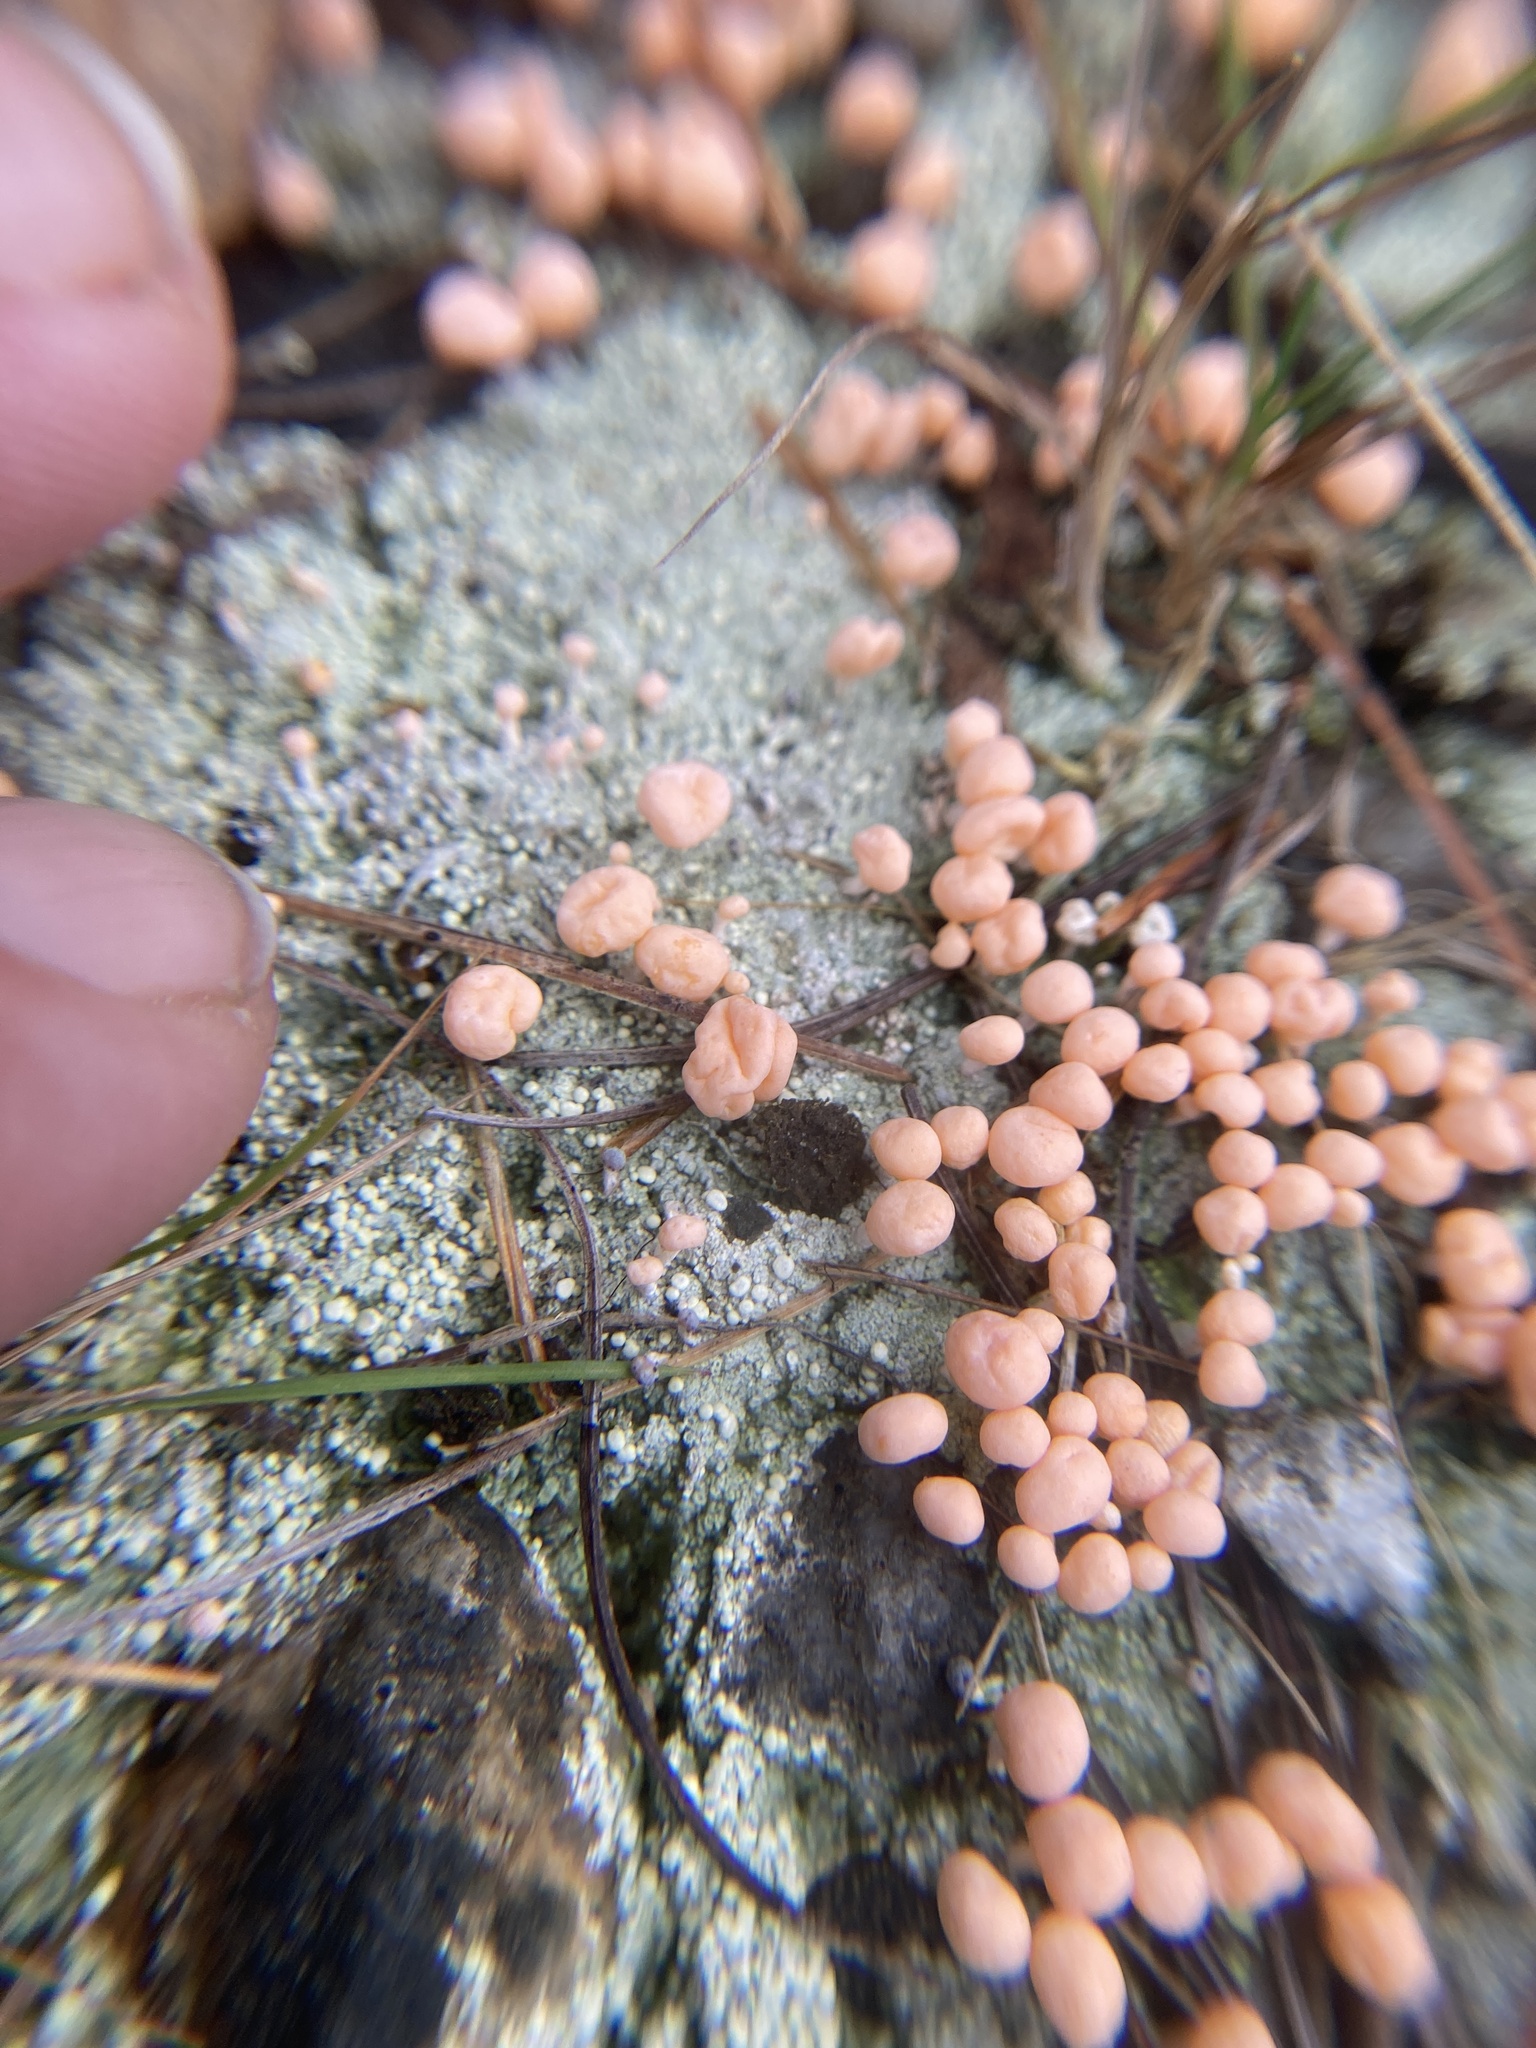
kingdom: Fungi
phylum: Ascomycota
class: Lecanoromycetes
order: Pertusariales
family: Icmadophilaceae
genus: Dibaeis
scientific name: Dibaeis baeomyces
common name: Pink earth lichen
